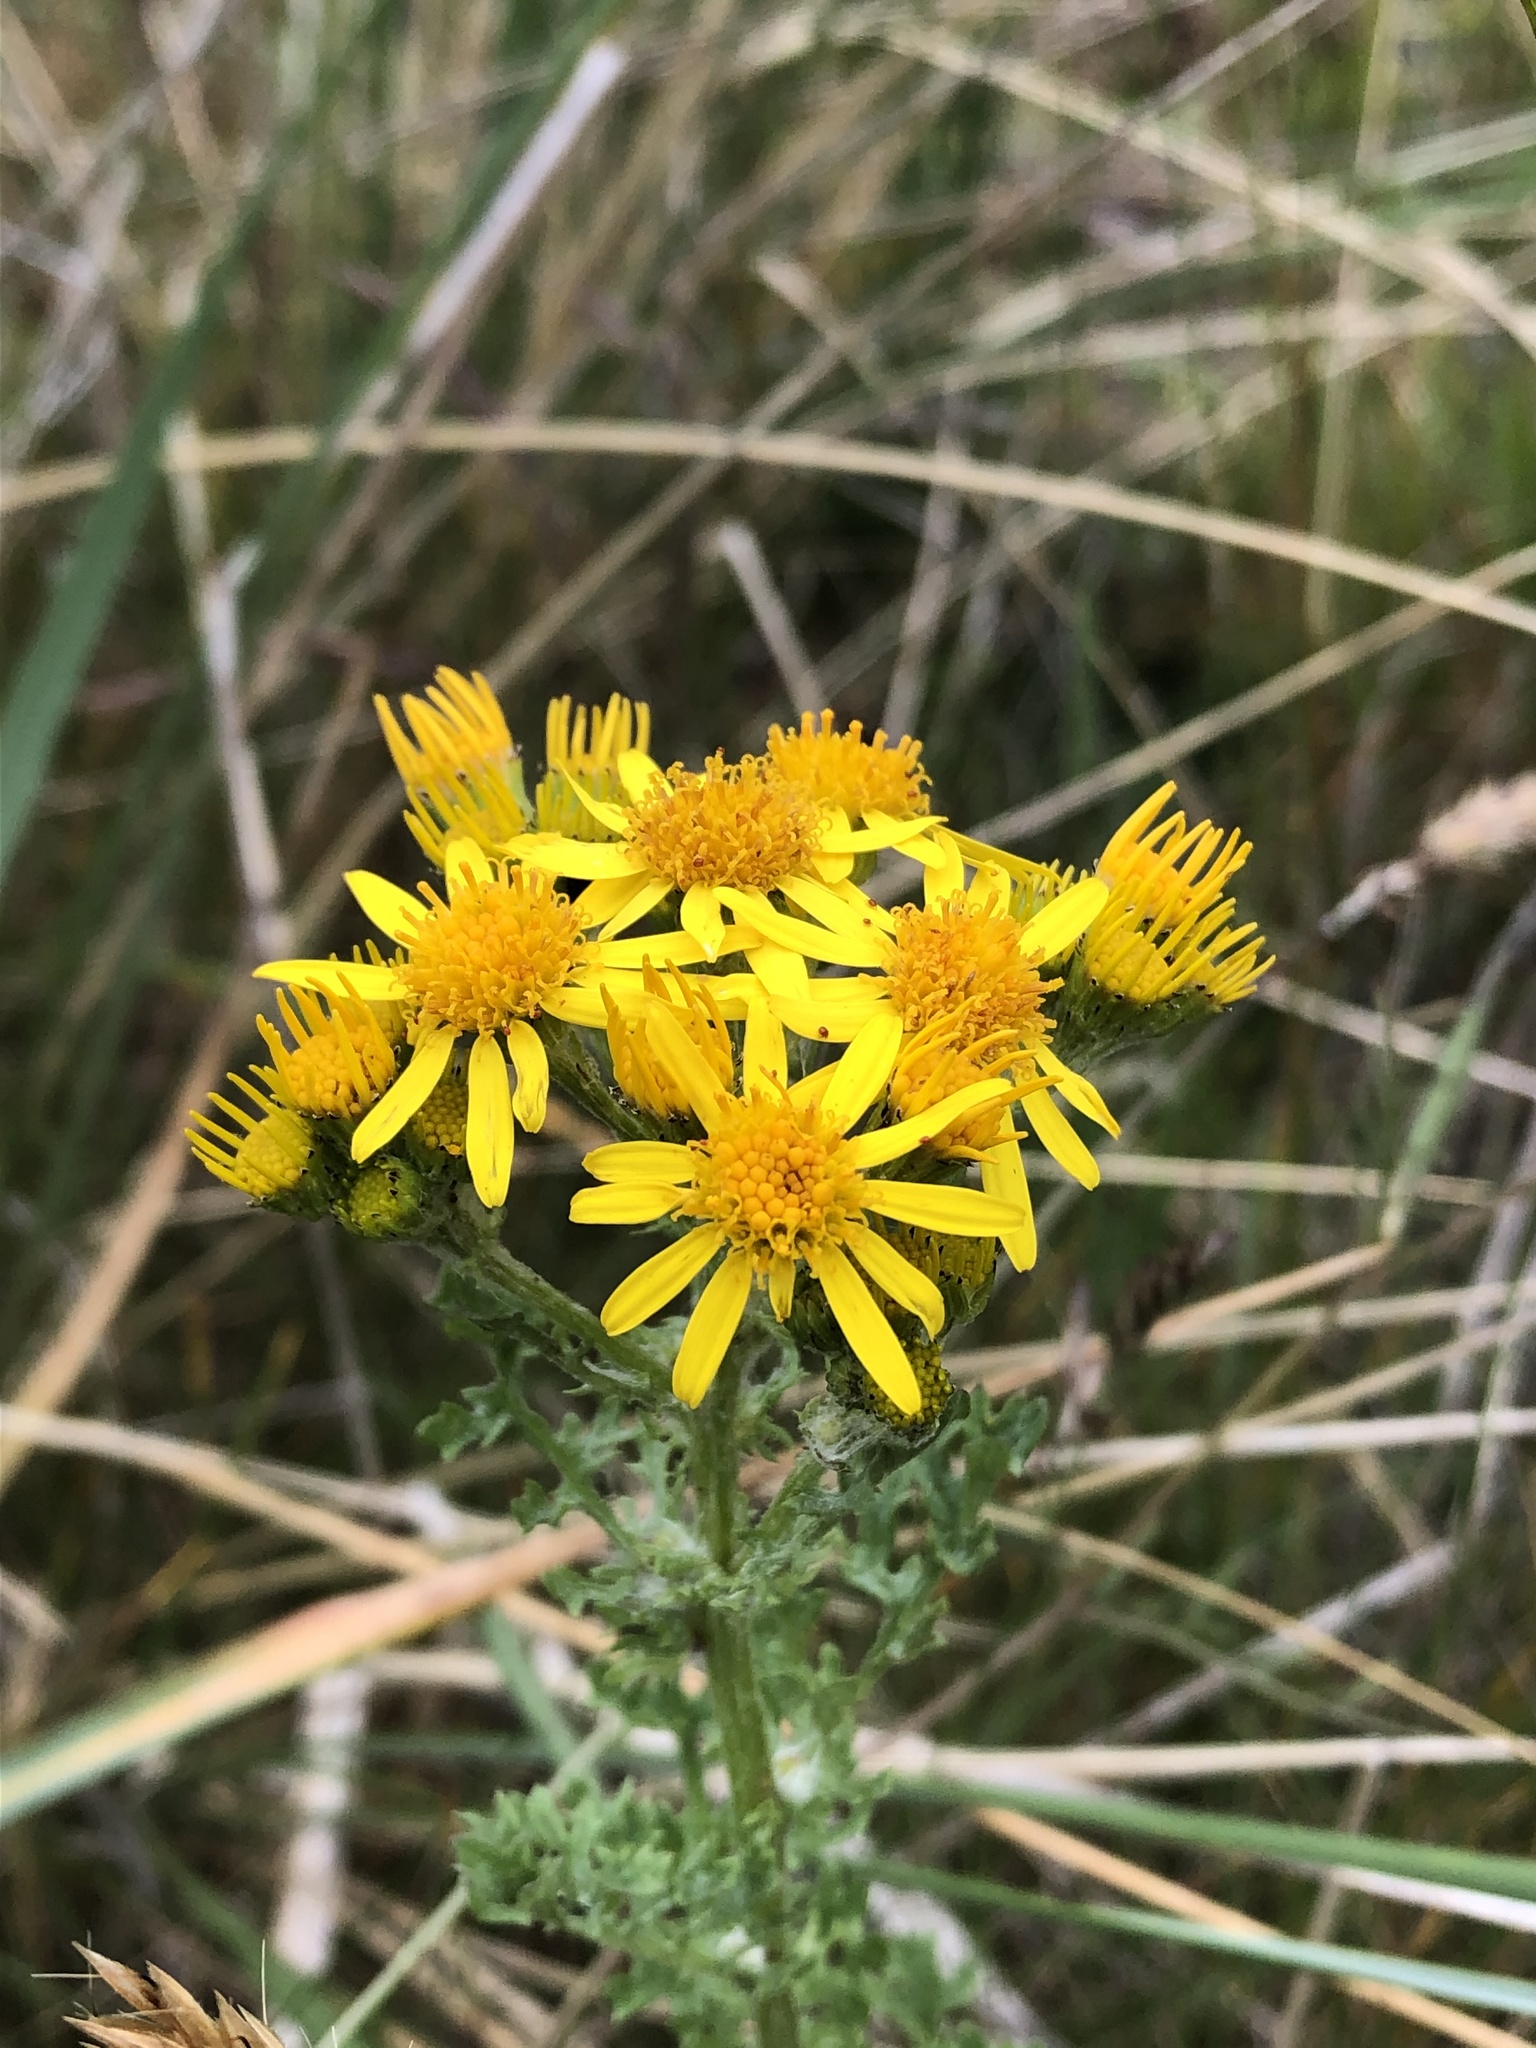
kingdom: Plantae
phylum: Tracheophyta
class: Magnoliopsida
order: Asterales
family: Asteraceae
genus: Jacobaea
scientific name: Jacobaea vulgaris
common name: Stinking willie
